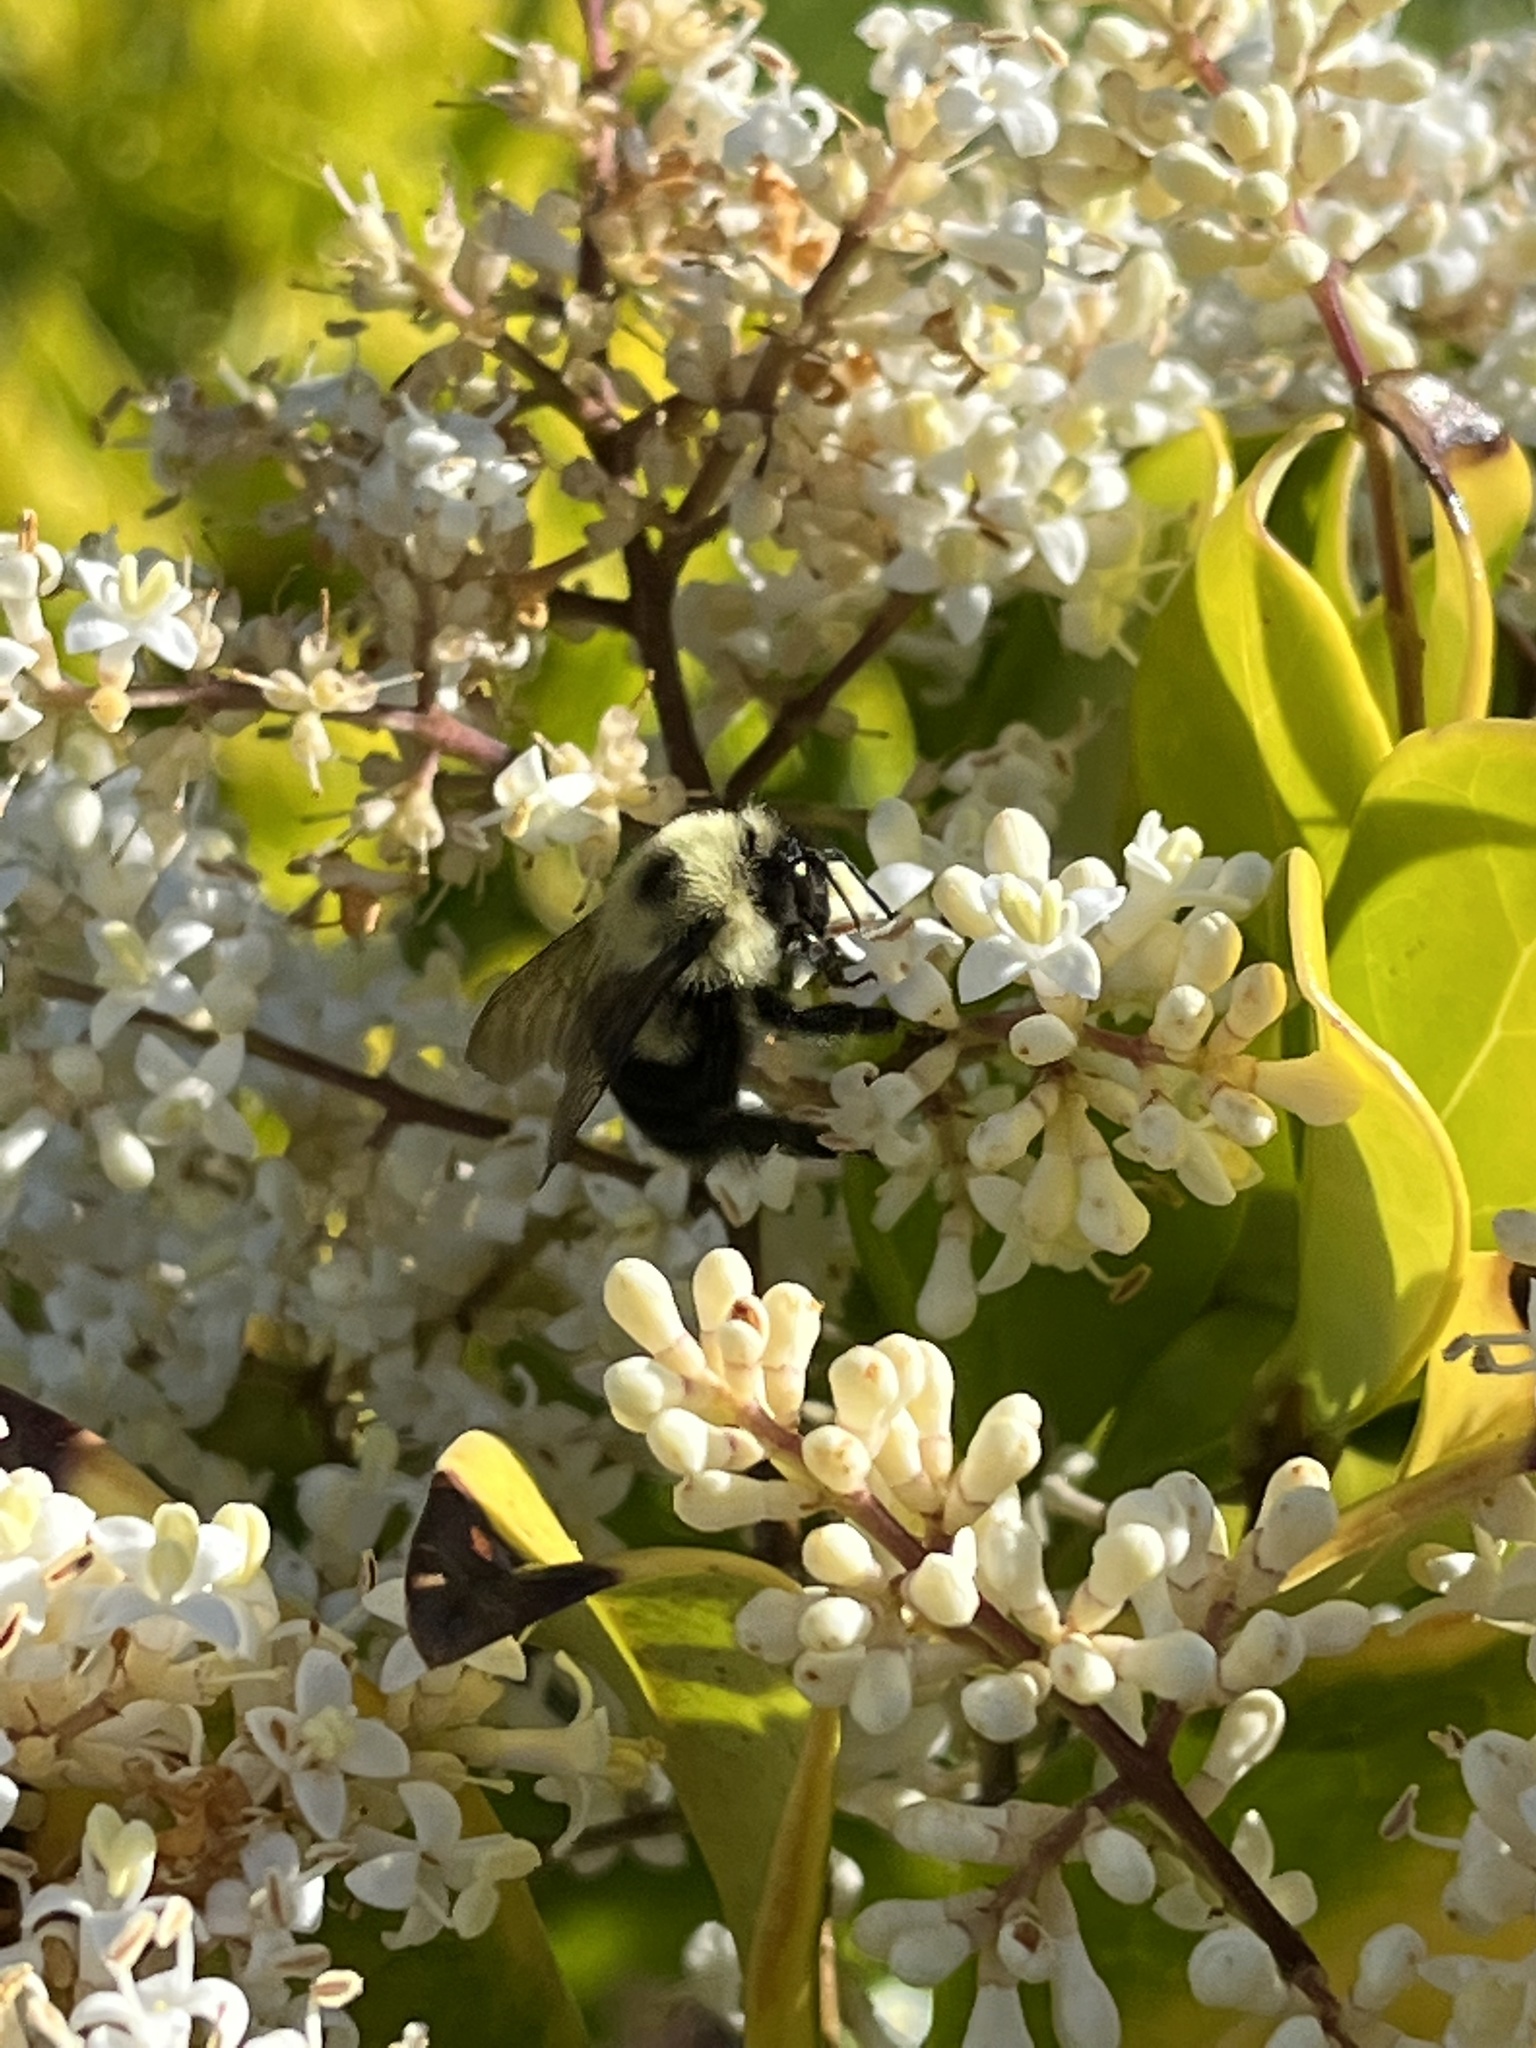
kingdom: Animalia
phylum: Arthropoda
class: Insecta
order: Hymenoptera
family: Apidae
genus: Bombus
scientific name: Bombus bimaculatus
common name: Two-spotted bumble bee
